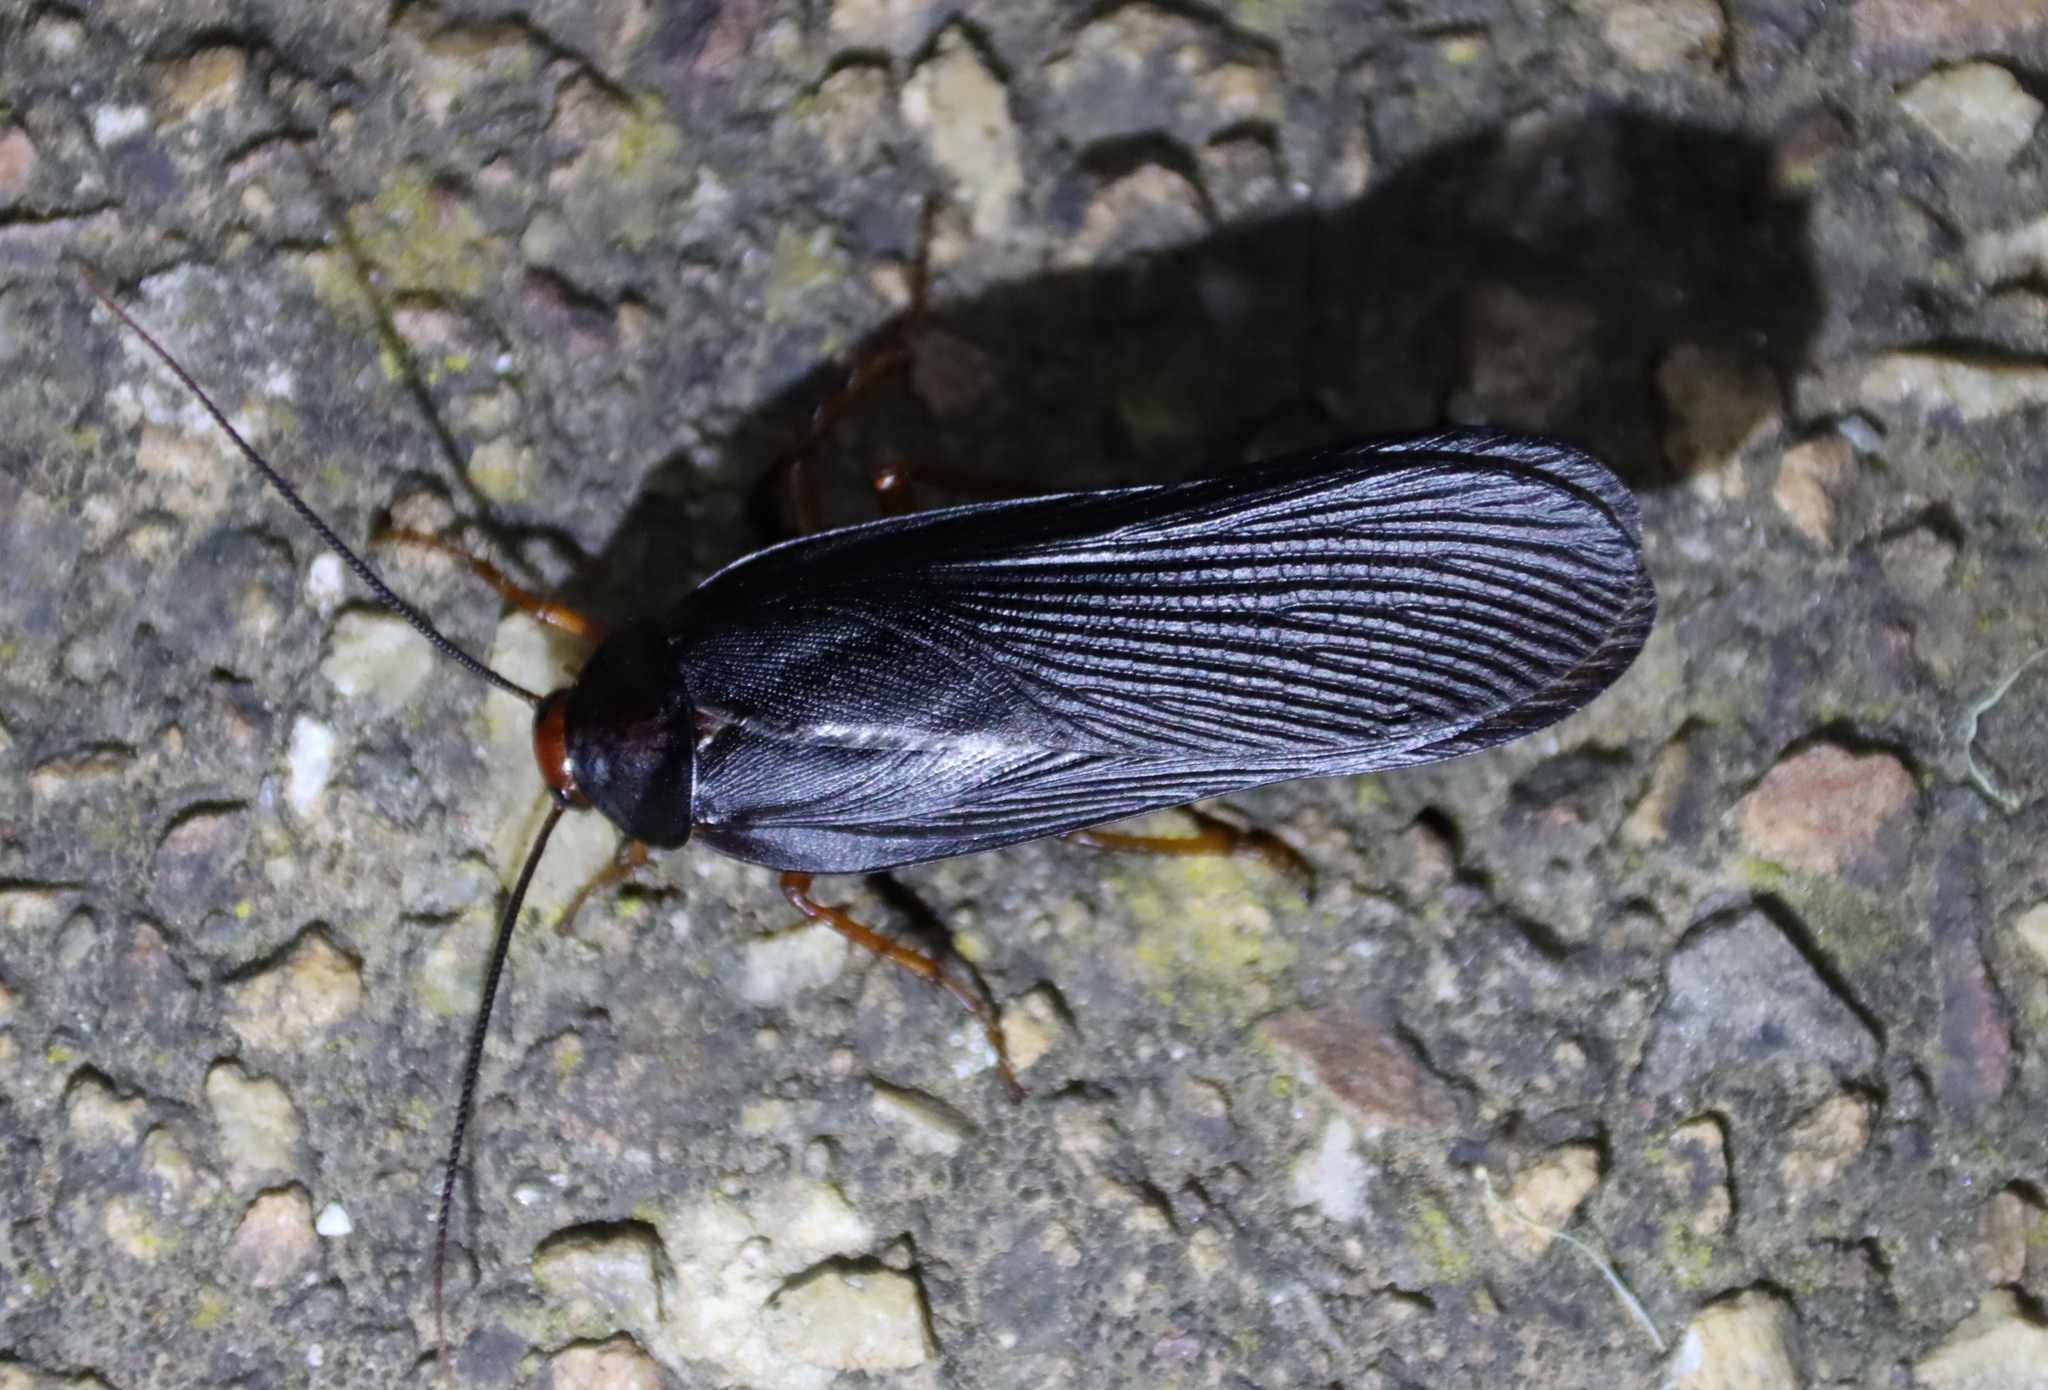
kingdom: Animalia
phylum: Arthropoda
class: Insecta
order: Blattodea
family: Blattidae
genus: Deropeltis
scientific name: Deropeltis erythrocephala
